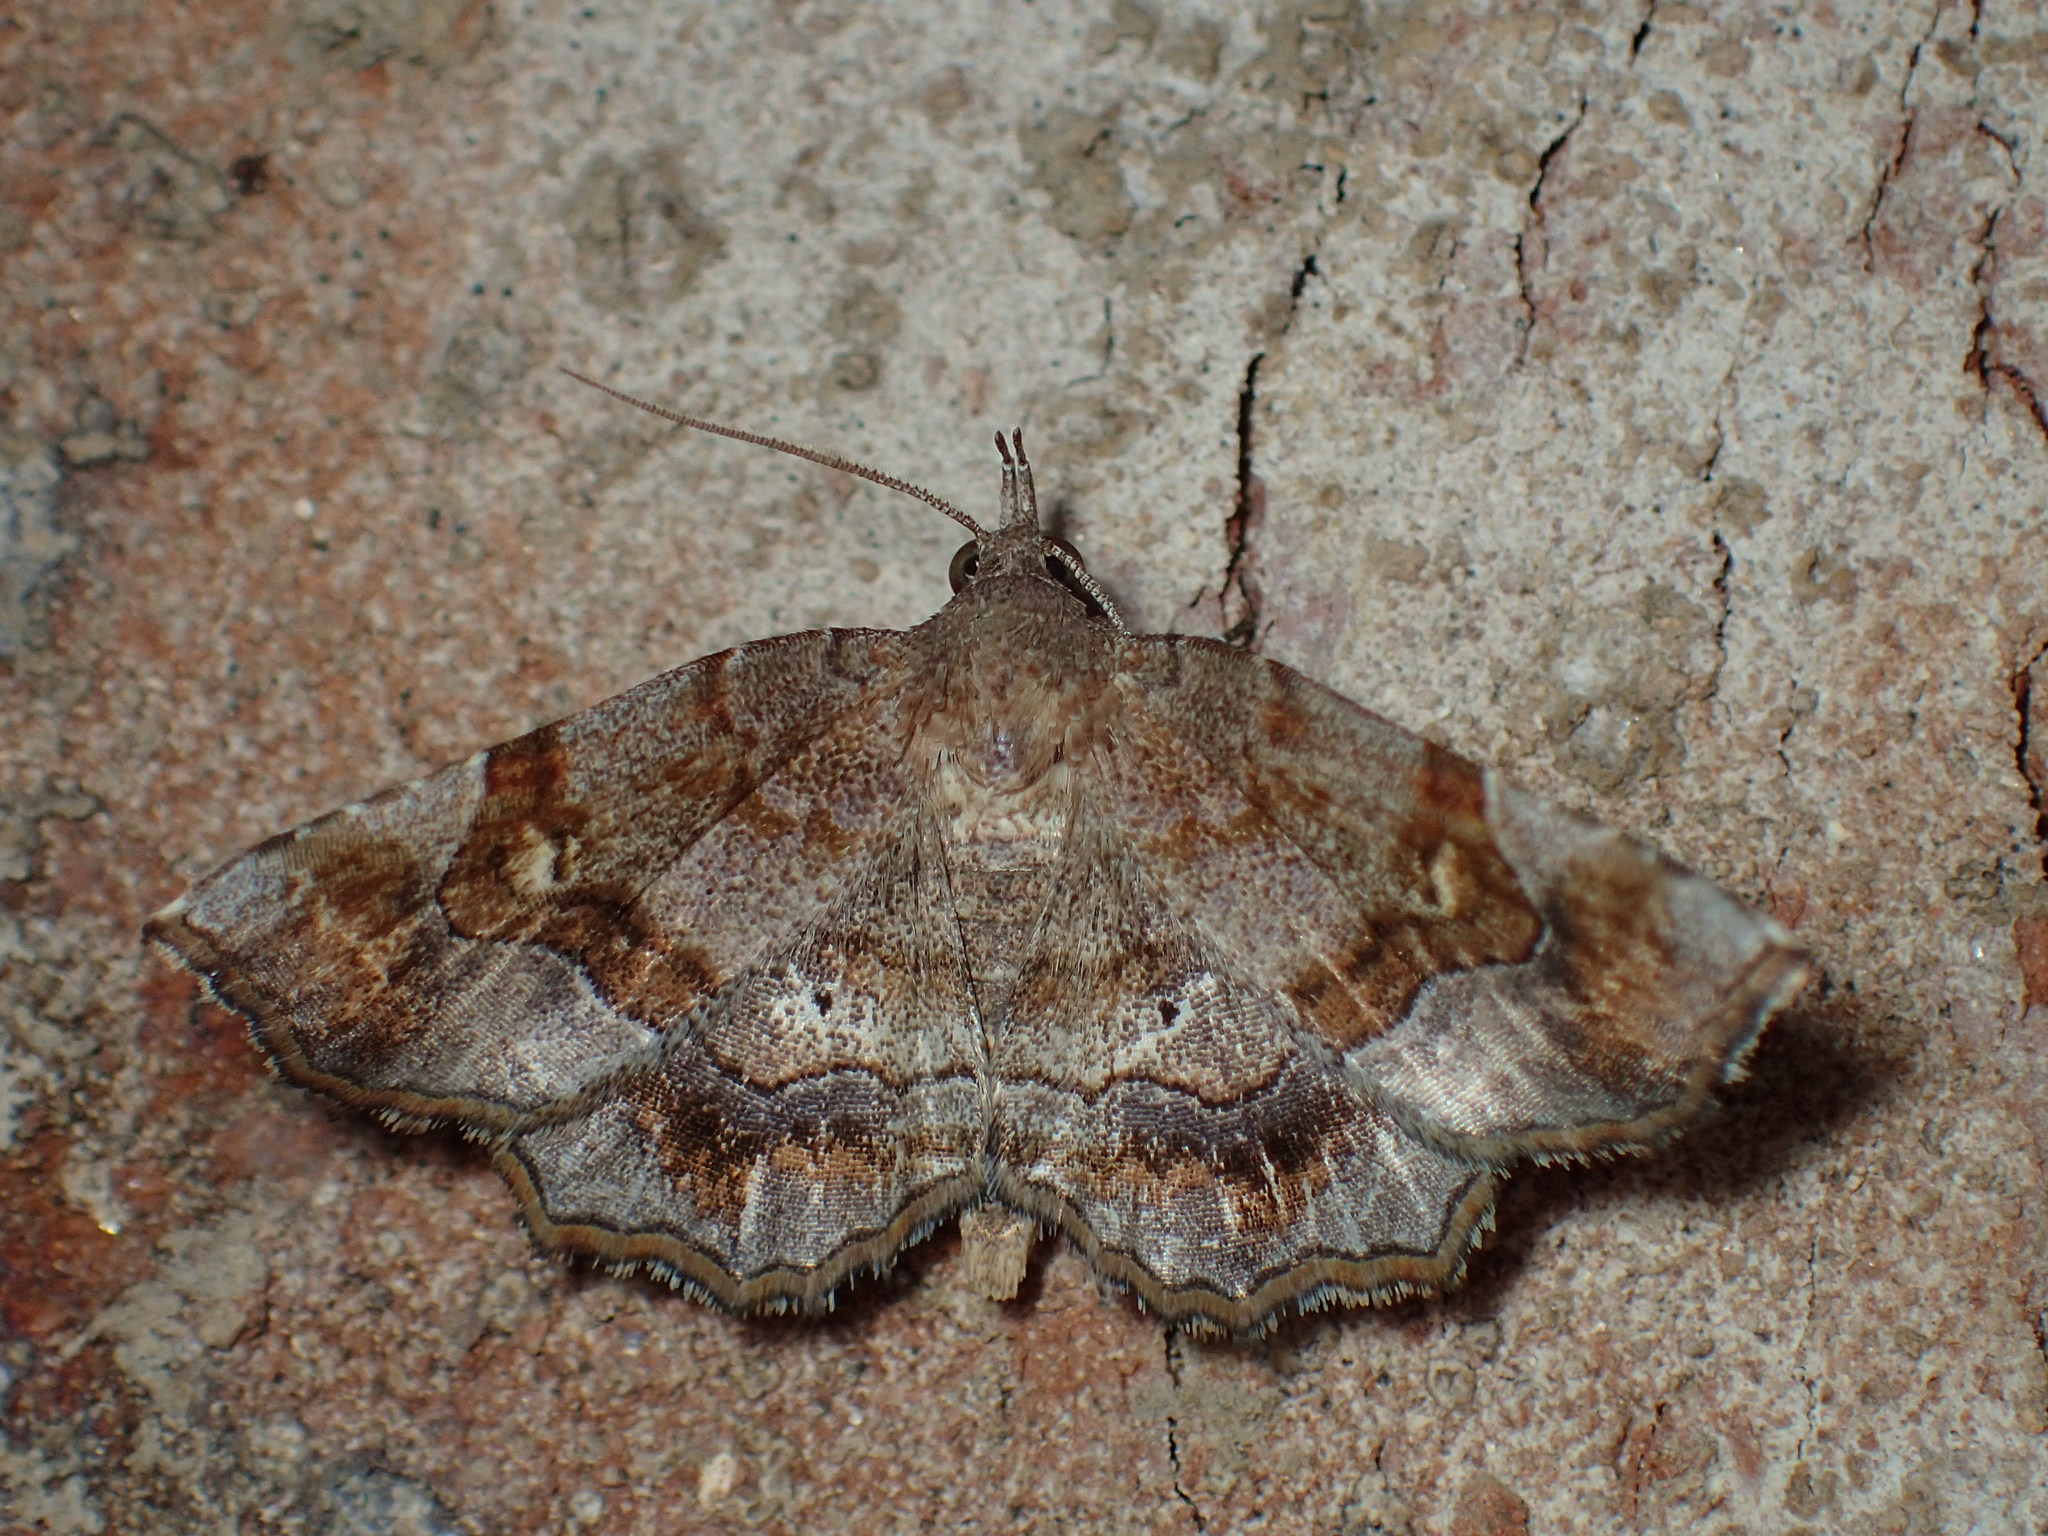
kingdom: Animalia
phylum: Arthropoda
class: Insecta
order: Lepidoptera
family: Erebidae
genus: Pangrapta
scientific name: Pangrapta decoralis
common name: Decorated owlet
